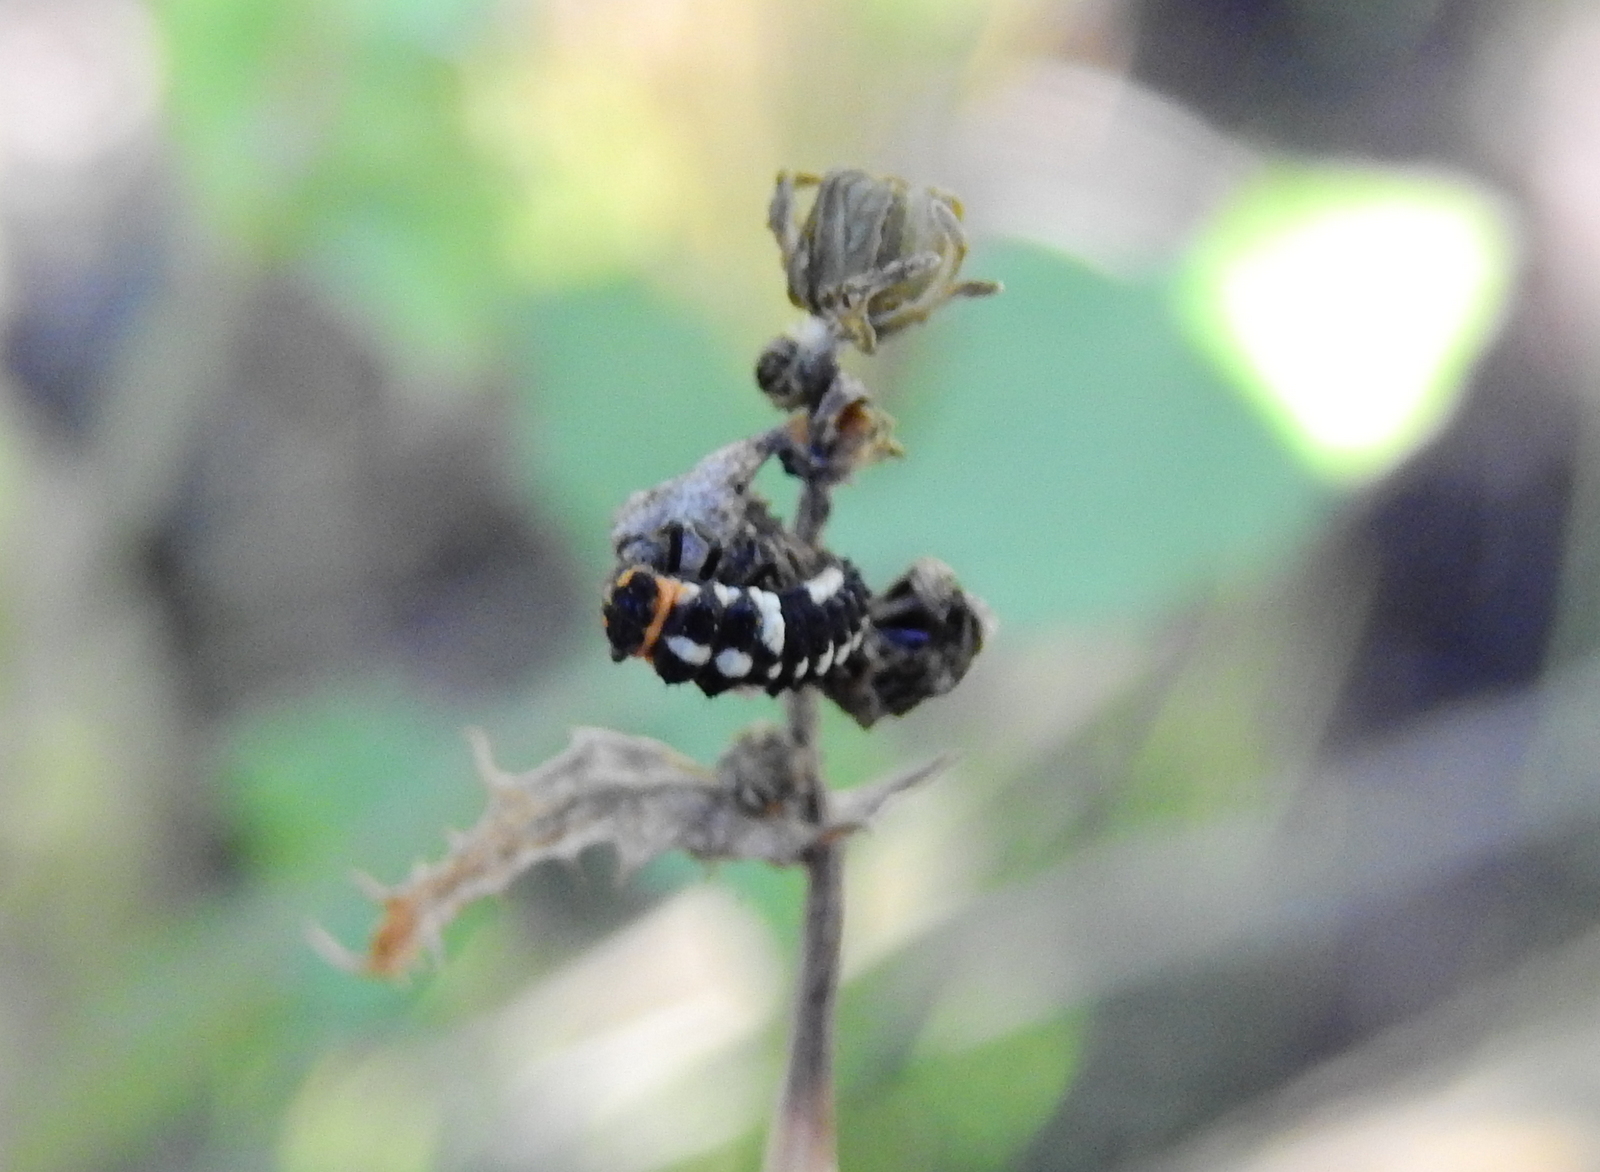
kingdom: Animalia
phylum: Arthropoda
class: Insecta
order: Coleoptera
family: Coccinellidae
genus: Eriopis
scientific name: Eriopis connexa
